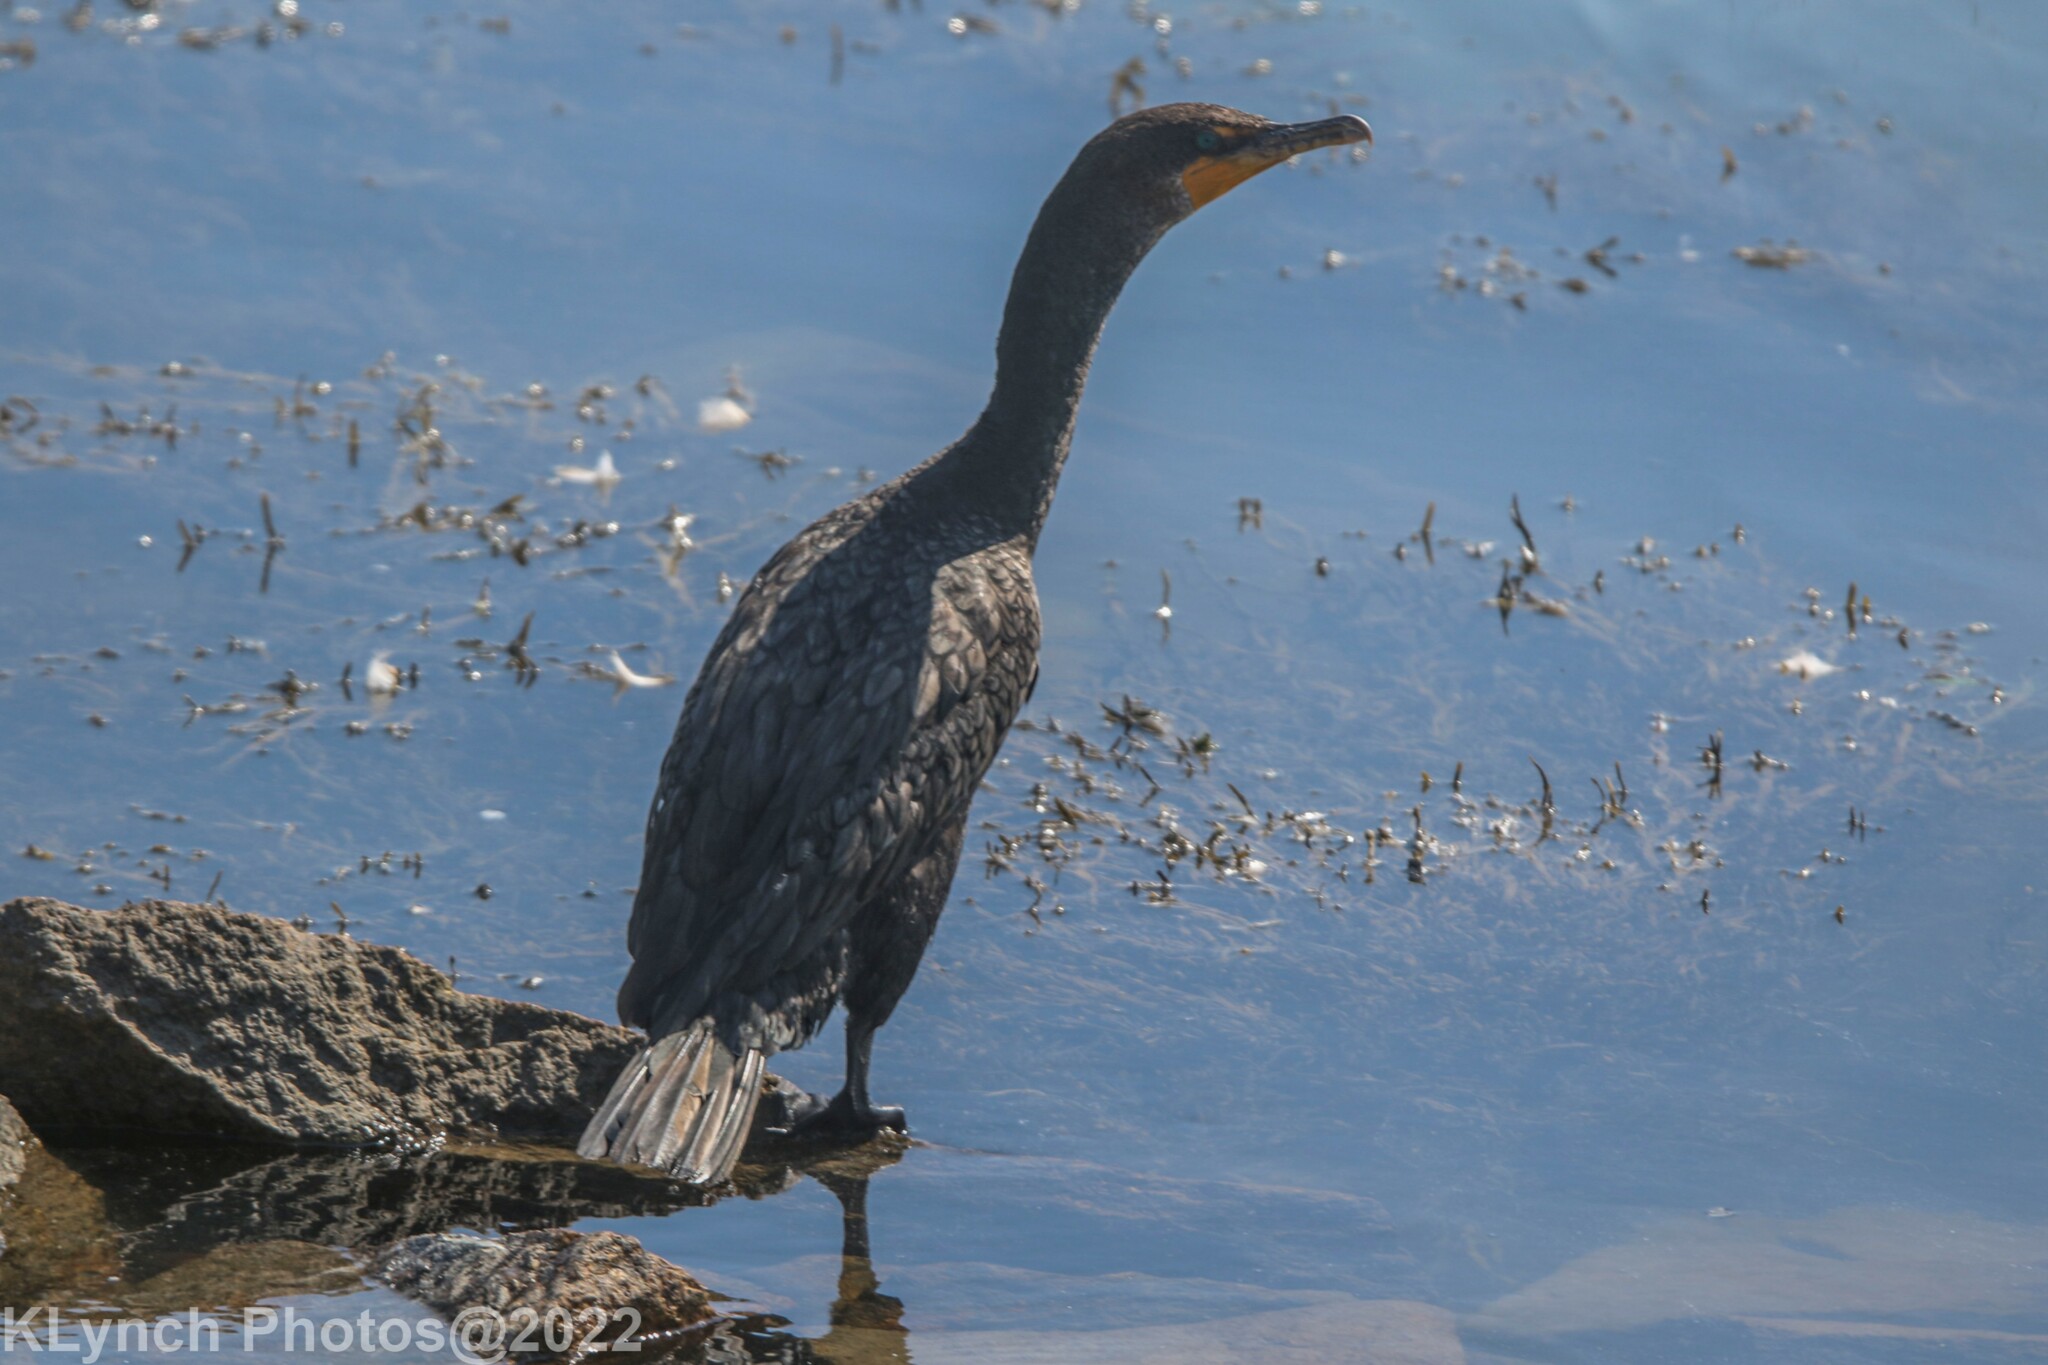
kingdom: Animalia
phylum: Chordata
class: Aves
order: Suliformes
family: Phalacrocoracidae
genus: Phalacrocorax
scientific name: Phalacrocorax auritus
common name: Double-crested cormorant
